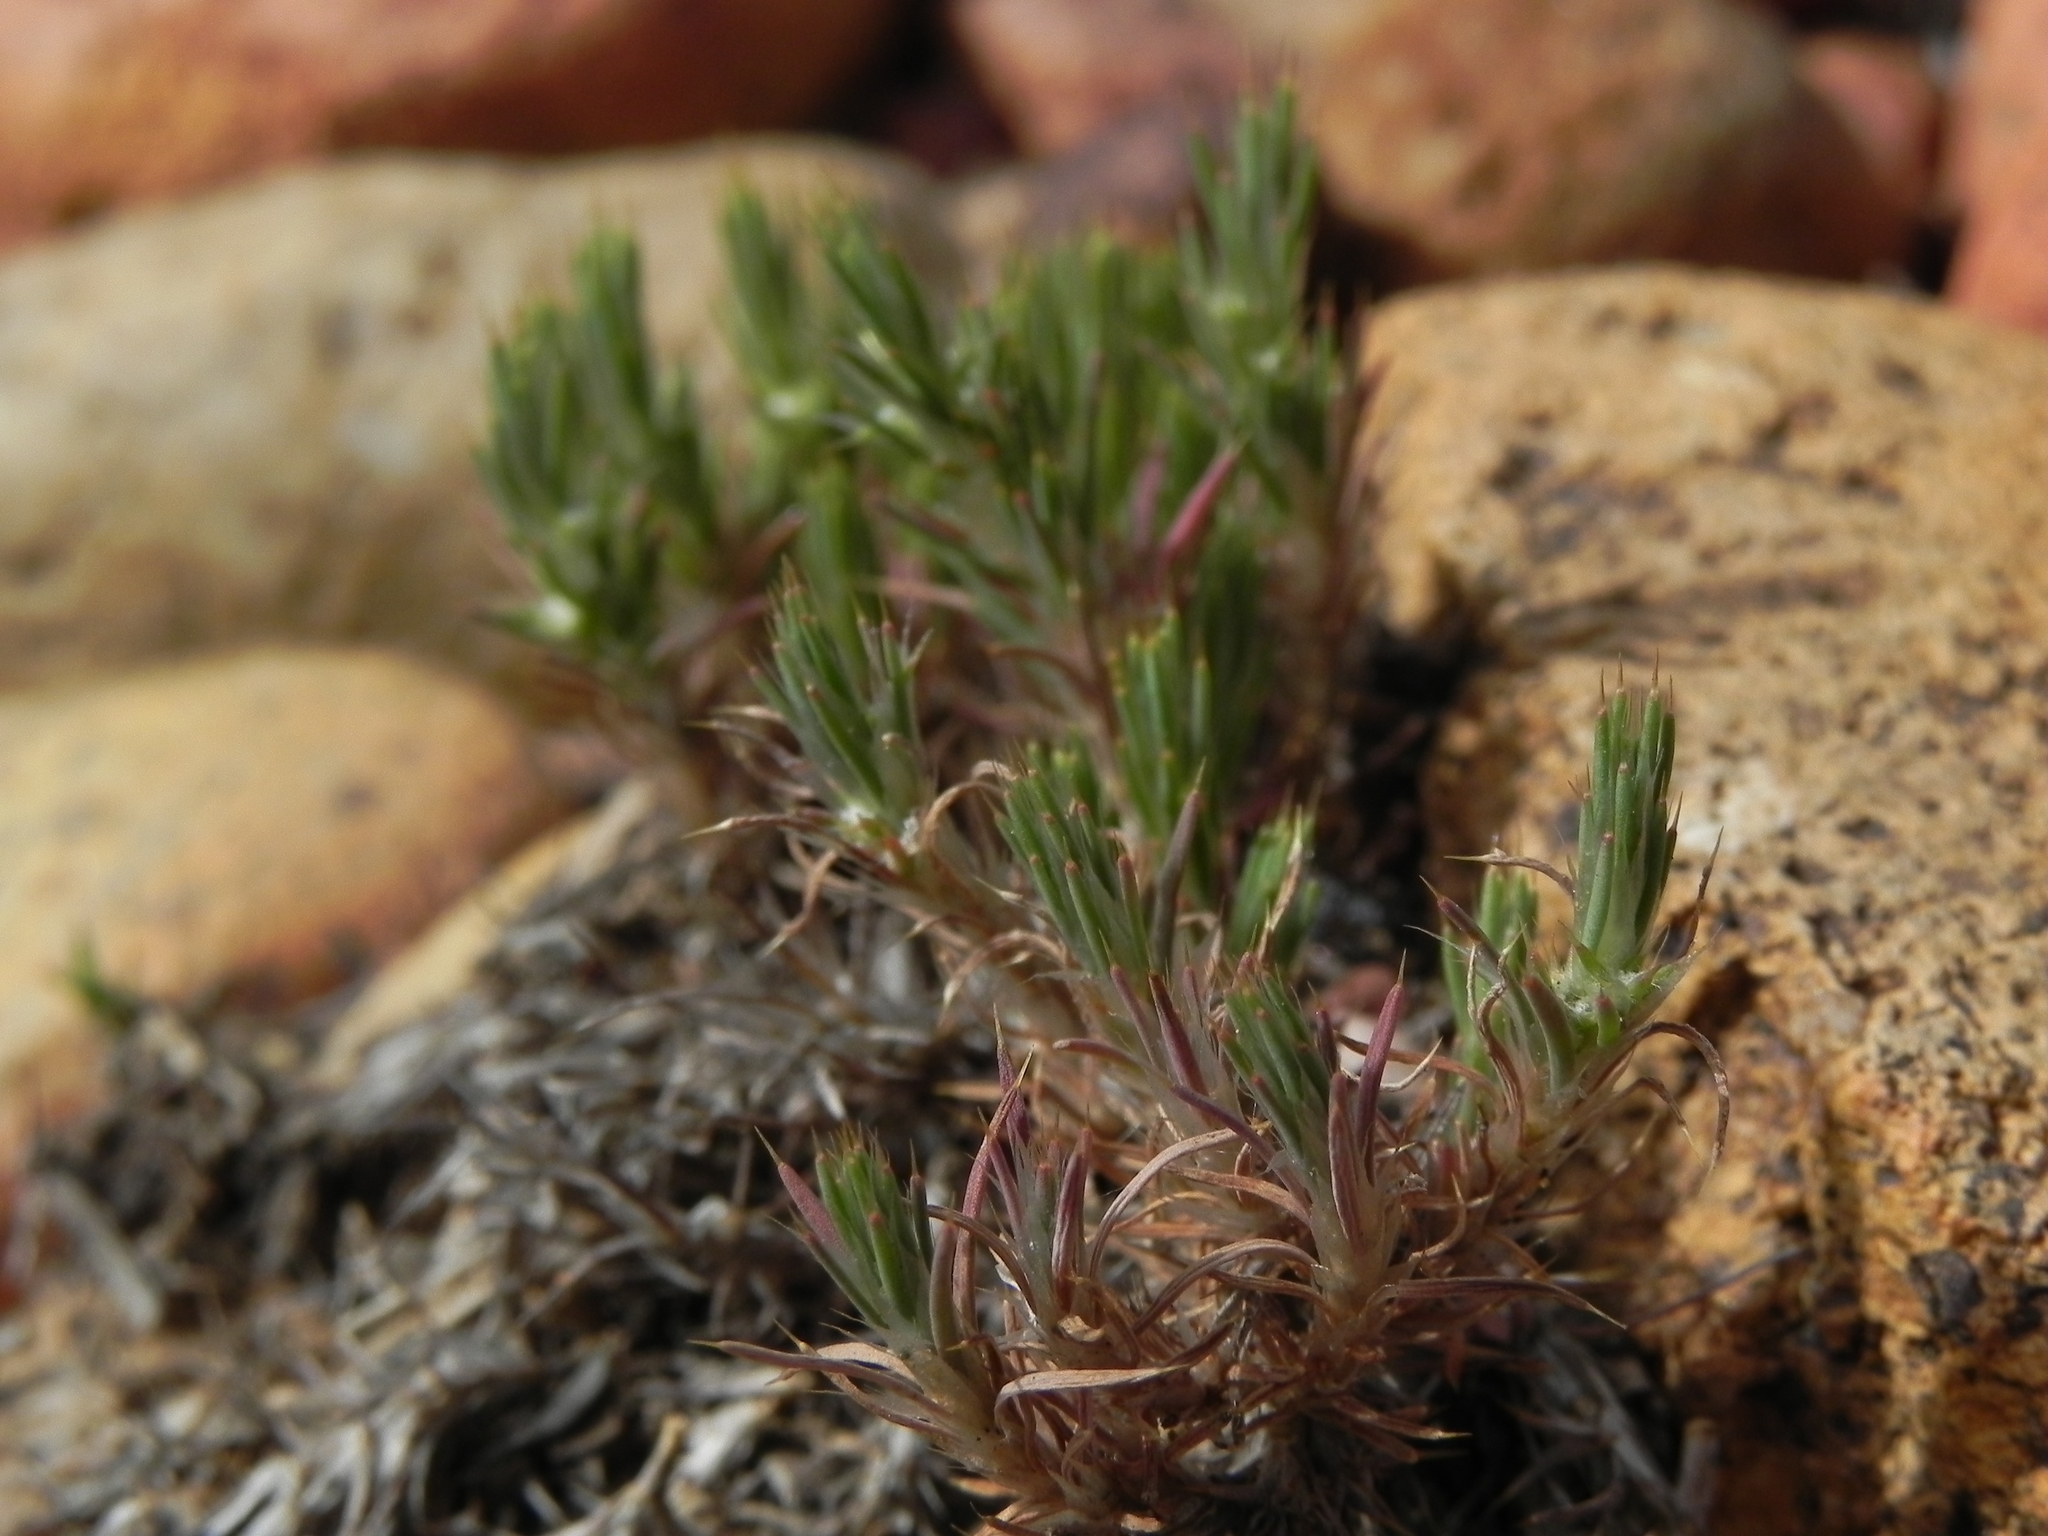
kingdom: Plantae
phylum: Tracheophyta
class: Magnoliopsida
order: Caryophyllales
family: Caryophyllaceae
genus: Cardionema
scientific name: Cardionema ramosissima
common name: Sandcarpet
